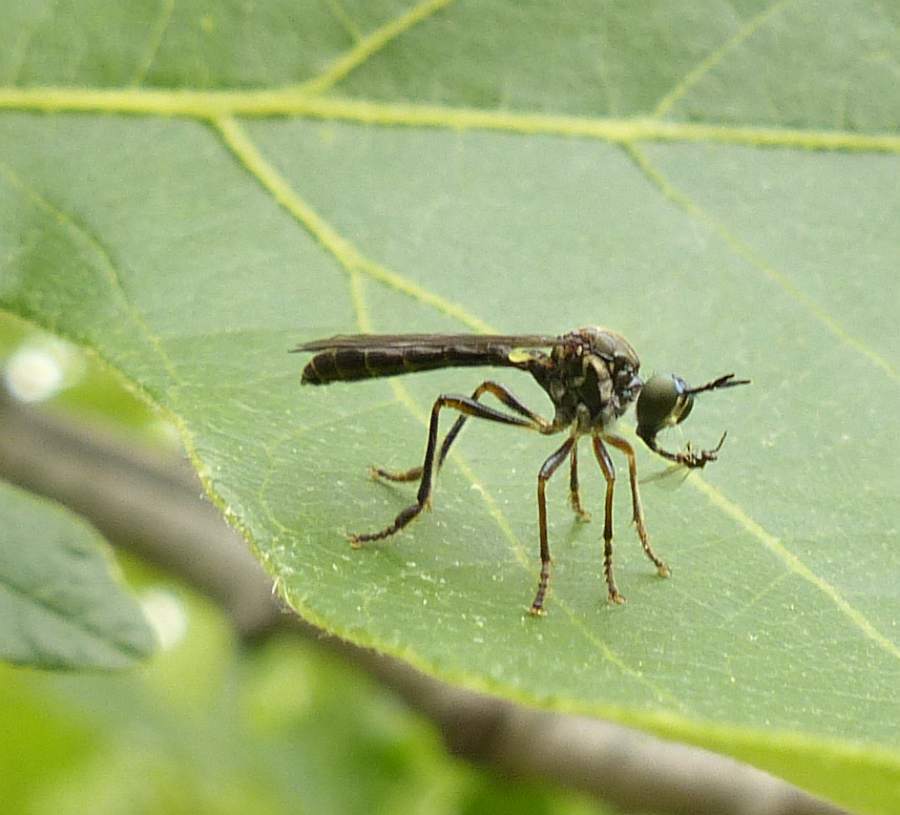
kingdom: Animalia
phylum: Arthropoda
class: Insecta
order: Diptera
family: Asilidae
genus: Dioctria
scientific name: Dioctria hyalipennis
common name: Stripe-legged robberfly
